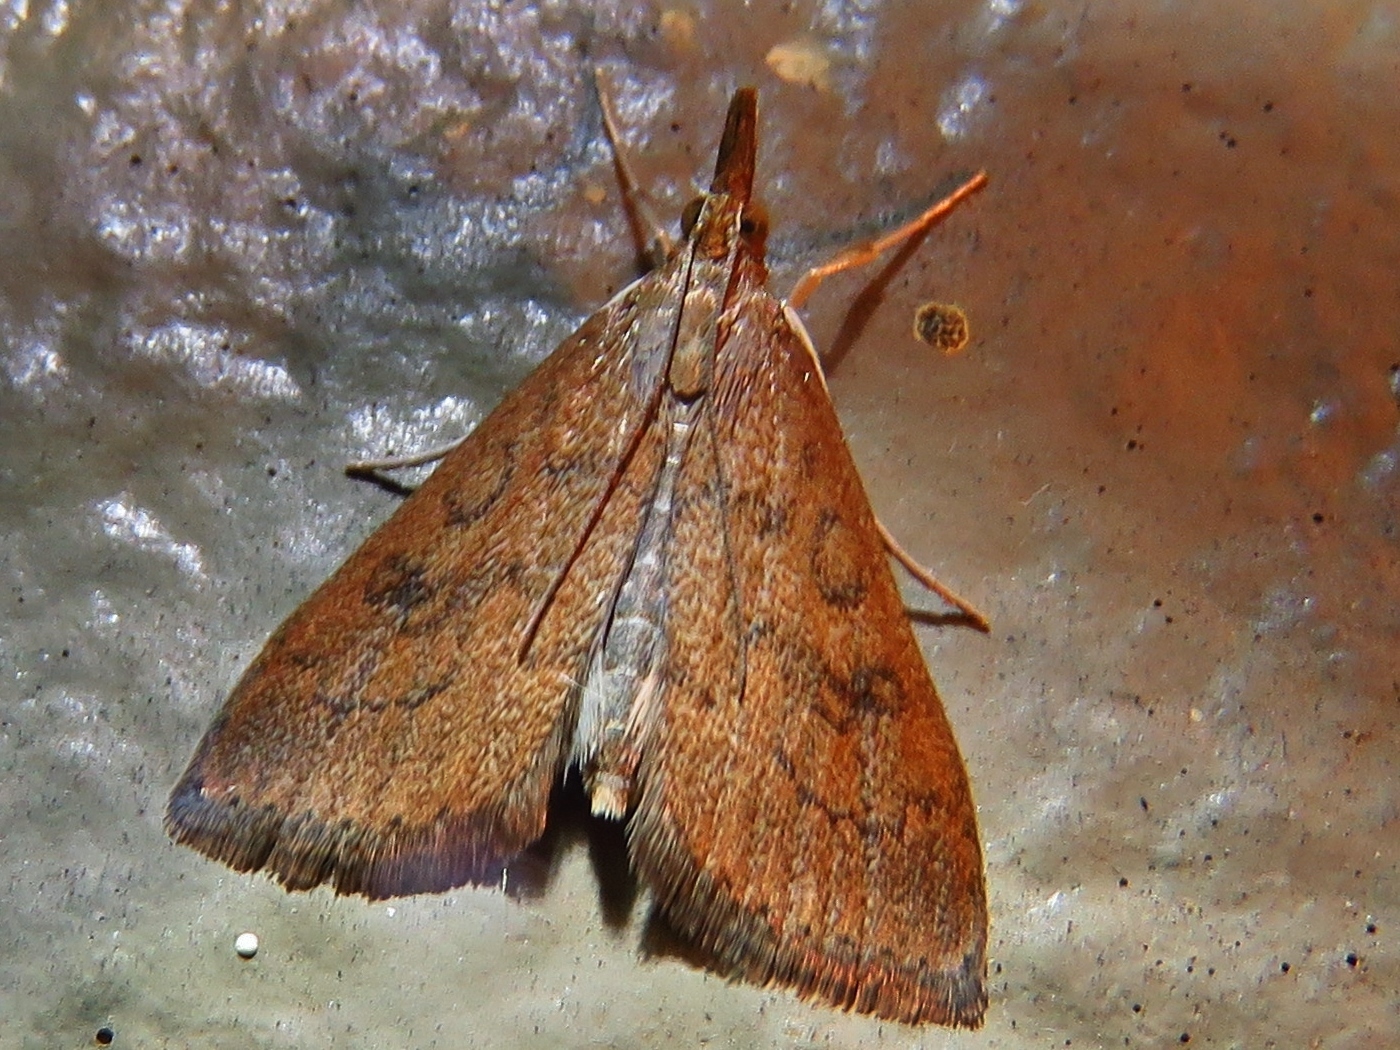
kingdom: Animalia
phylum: Arthropoda
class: Insecta
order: Lepidoptera
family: Crambidae
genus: Udea
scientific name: Udea rubigalis
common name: Celery leaftier moth
